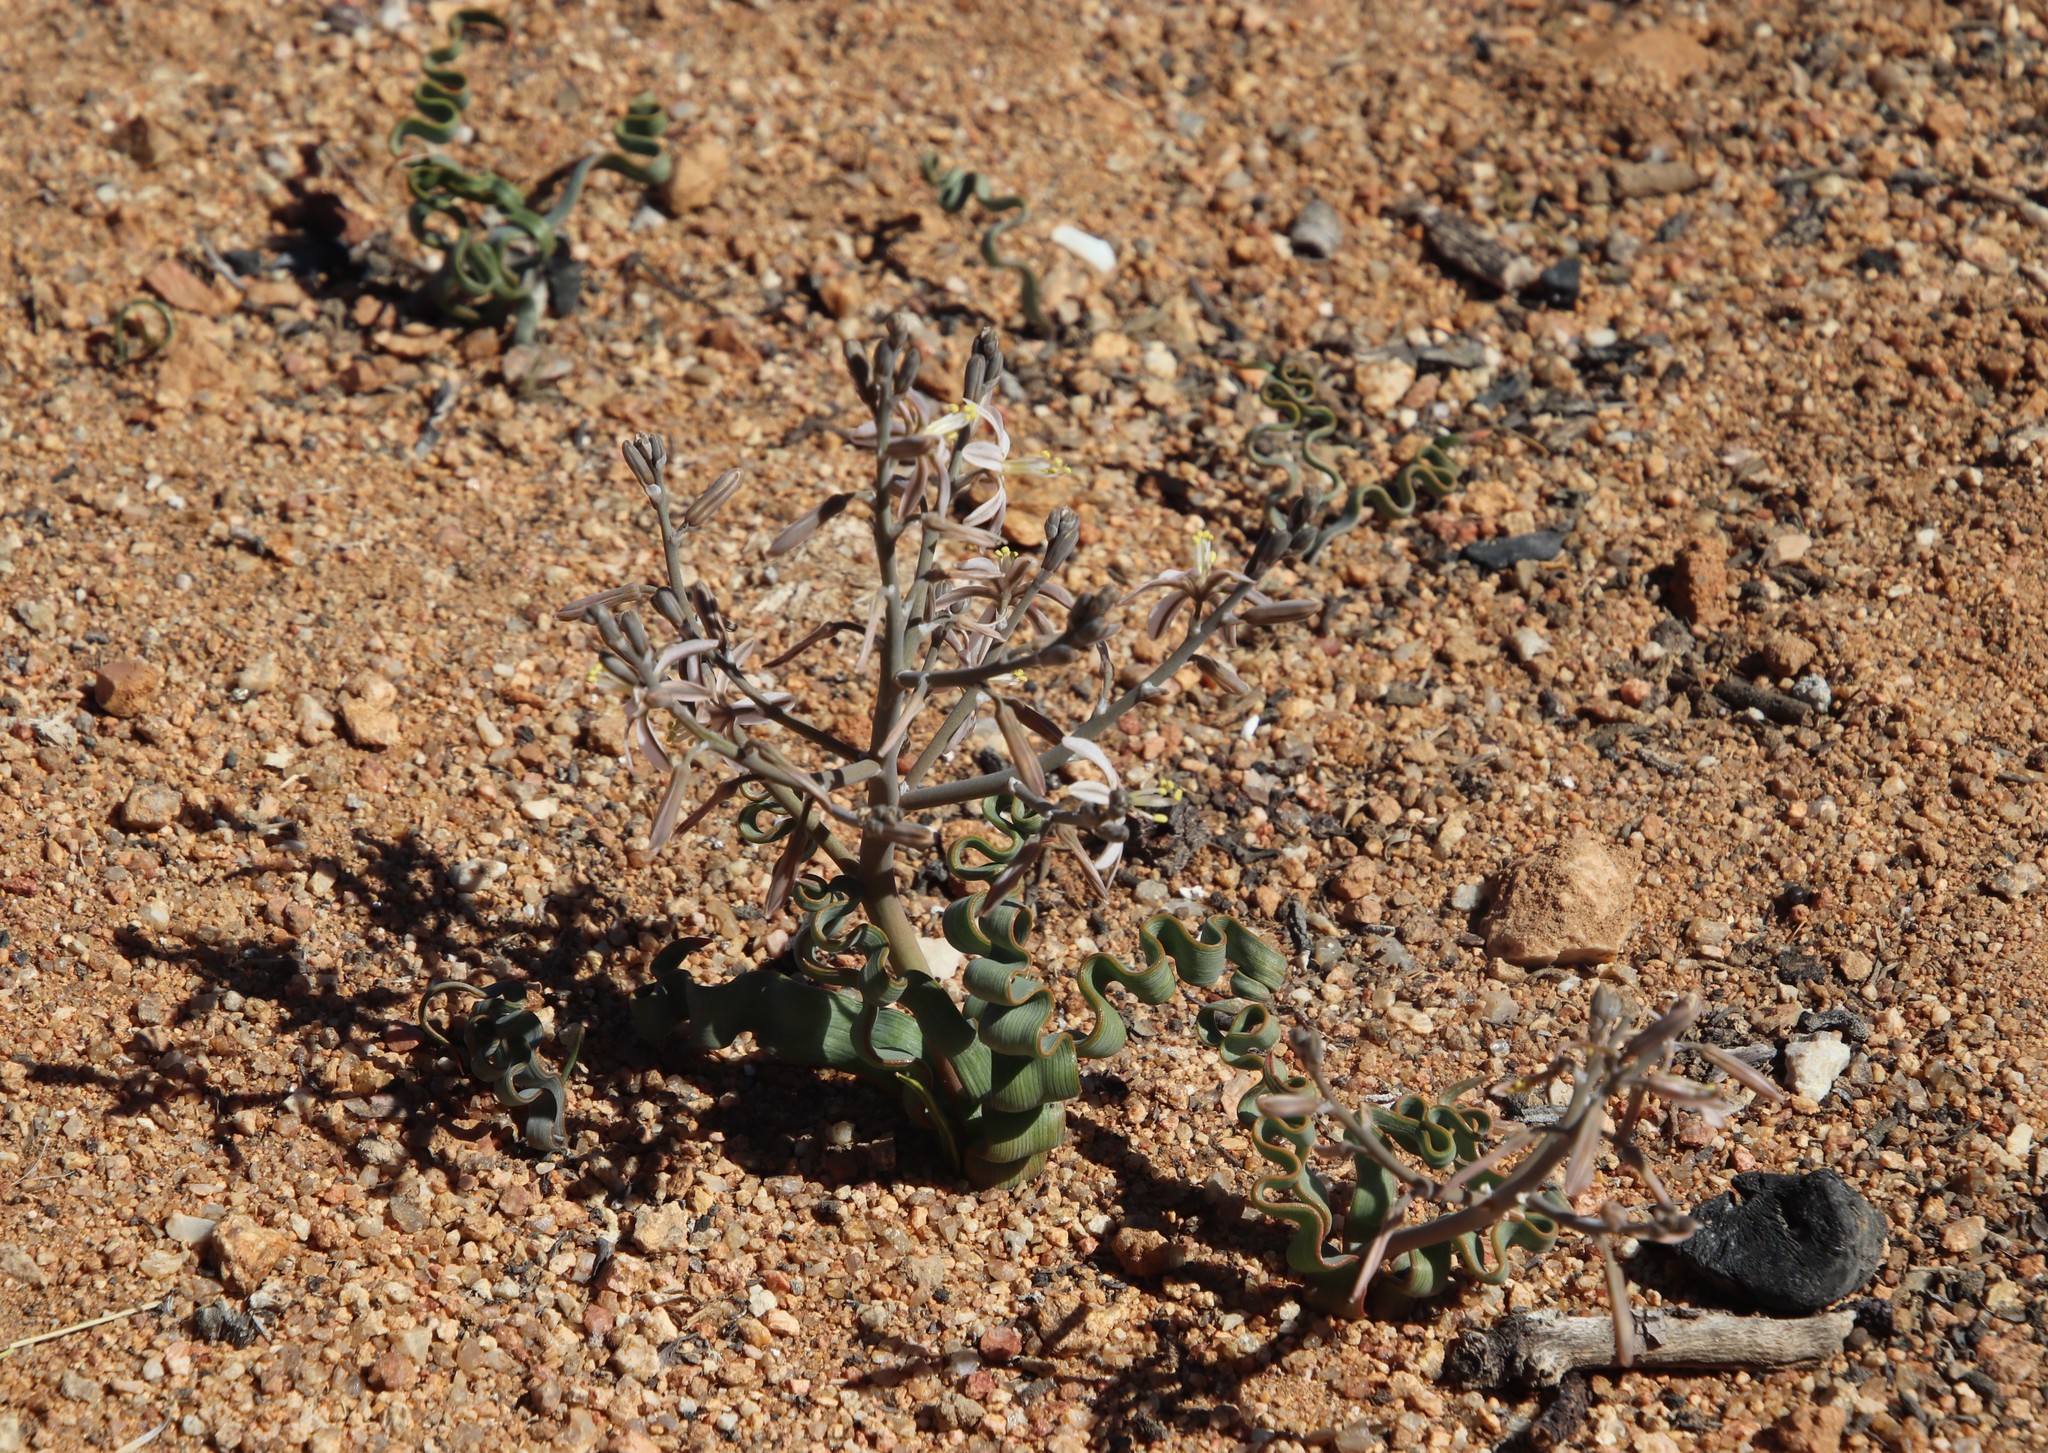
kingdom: Plantae
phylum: Tracheophyta
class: Liliopsida
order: Asparagales
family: Asphodelaceae
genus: Trachyandra
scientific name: Trachyandra tortilis
